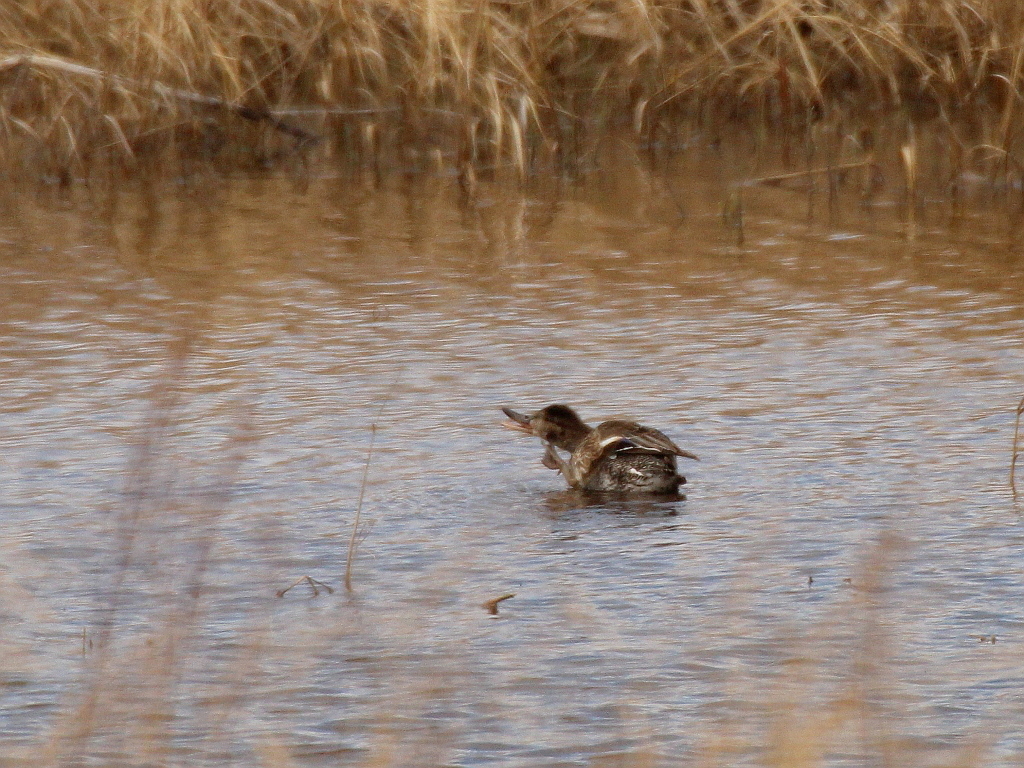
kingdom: Animalia
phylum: Chordata
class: Aves
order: Anseriformes
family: Anatidae
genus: Anas
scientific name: Anas crecca
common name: Eurasian teal
